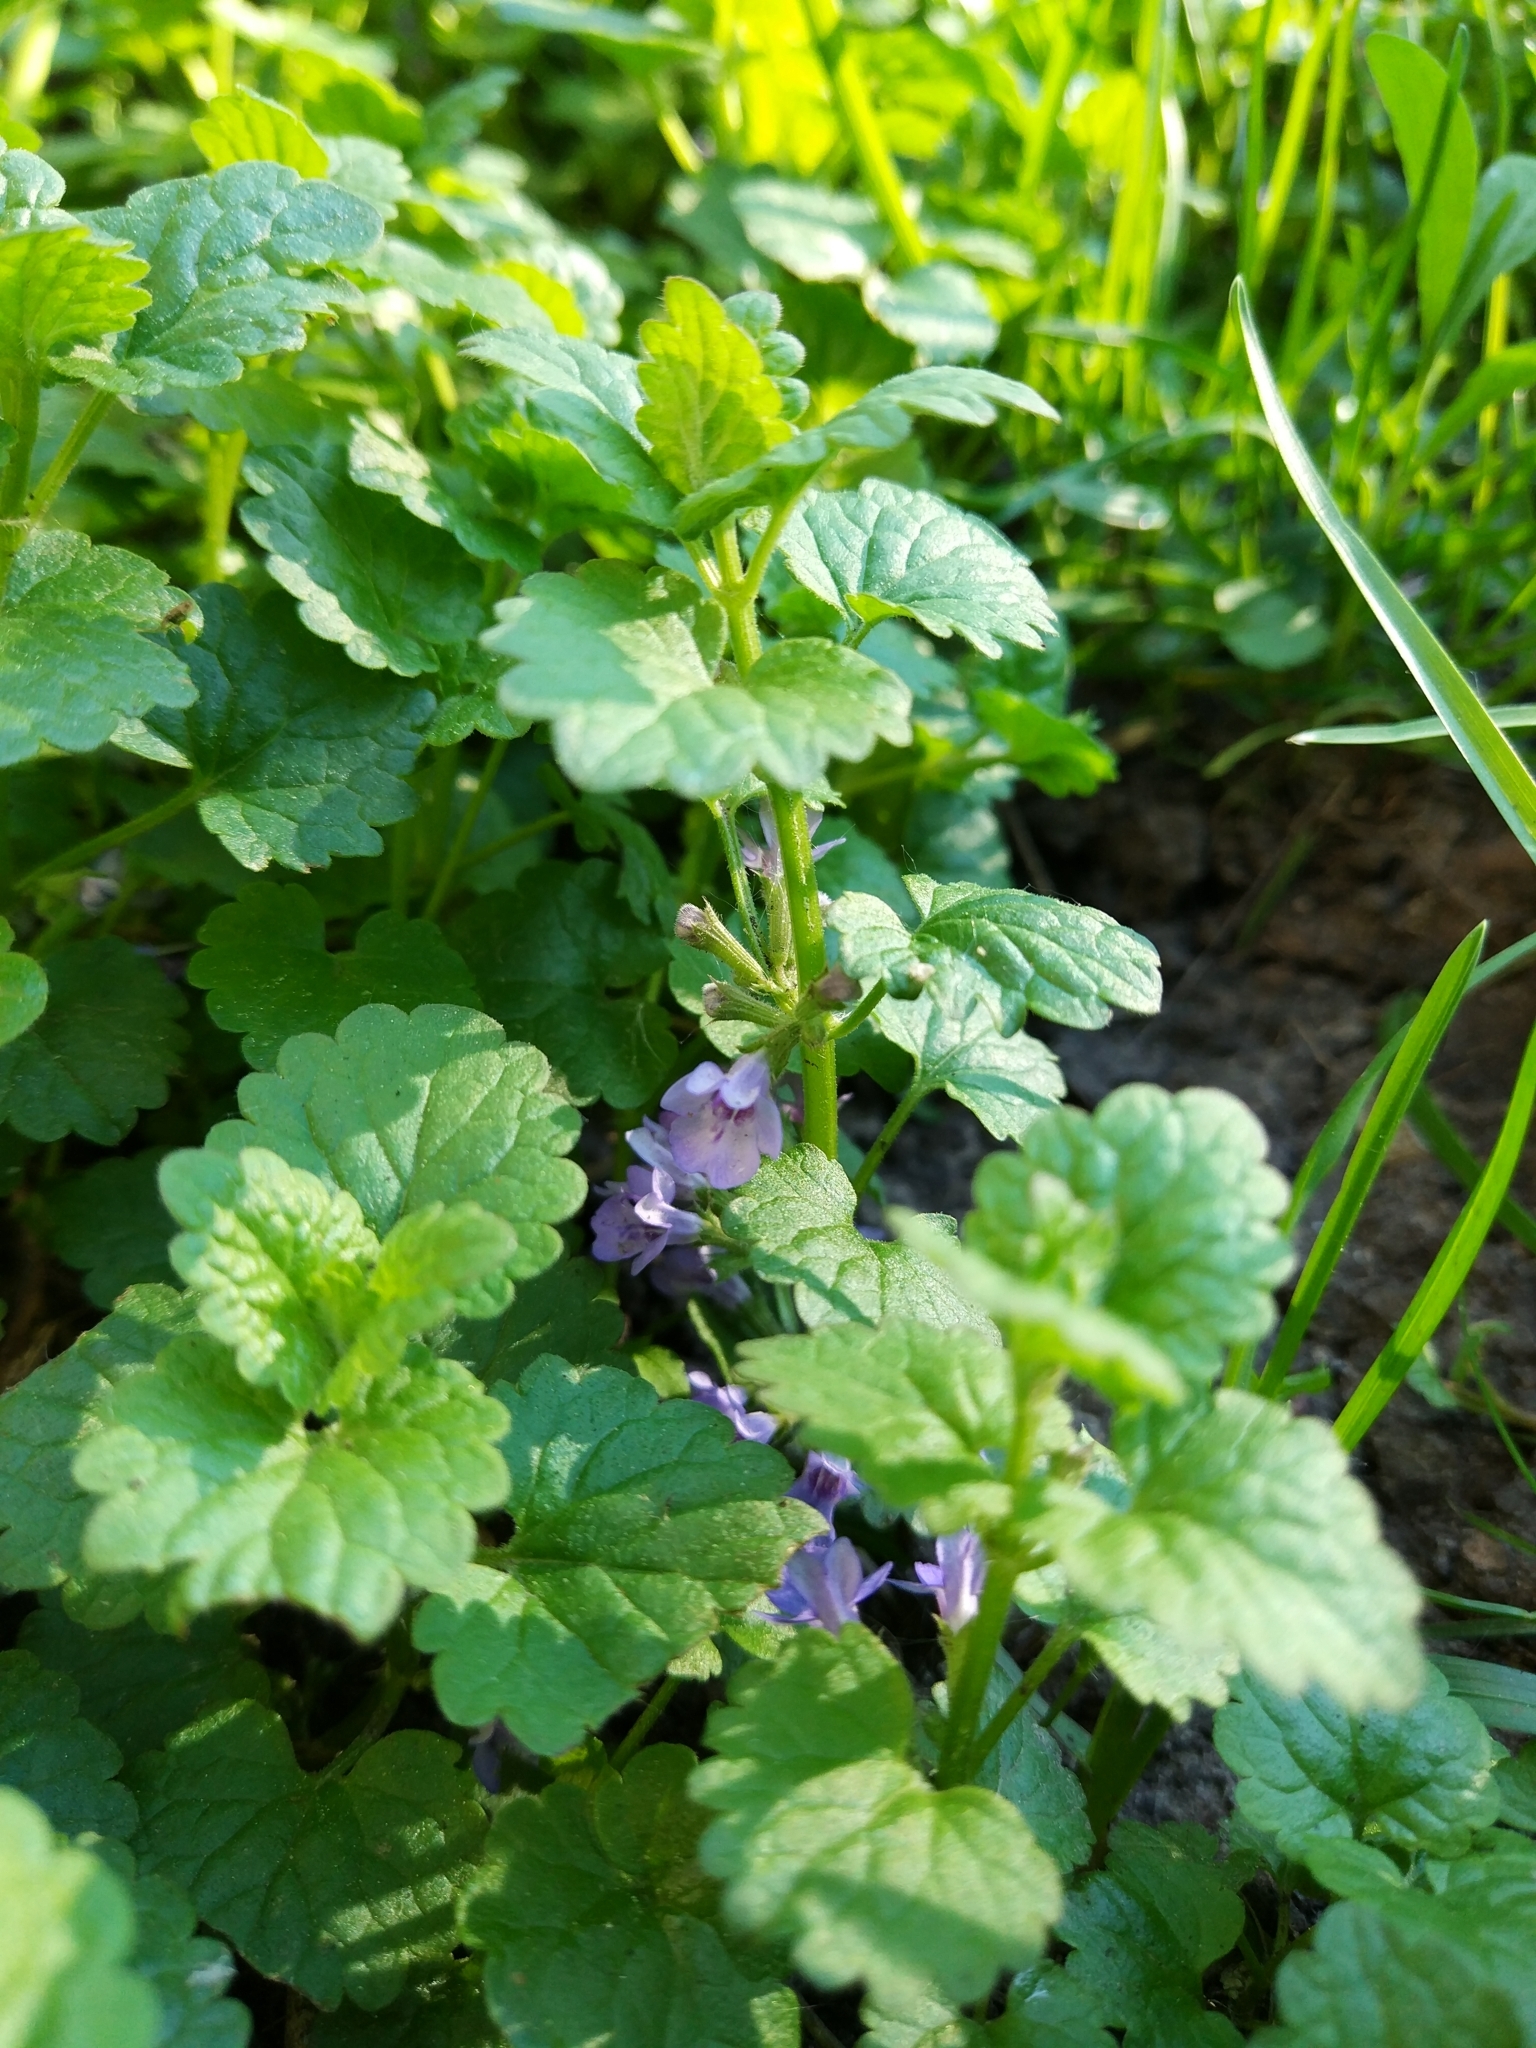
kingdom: Plantae
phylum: Tracheophyta
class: Magnoliopsida
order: Lamiales
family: Lamiaceae
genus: Glechoma
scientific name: Glechoma hederacea
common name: Ground ivy
